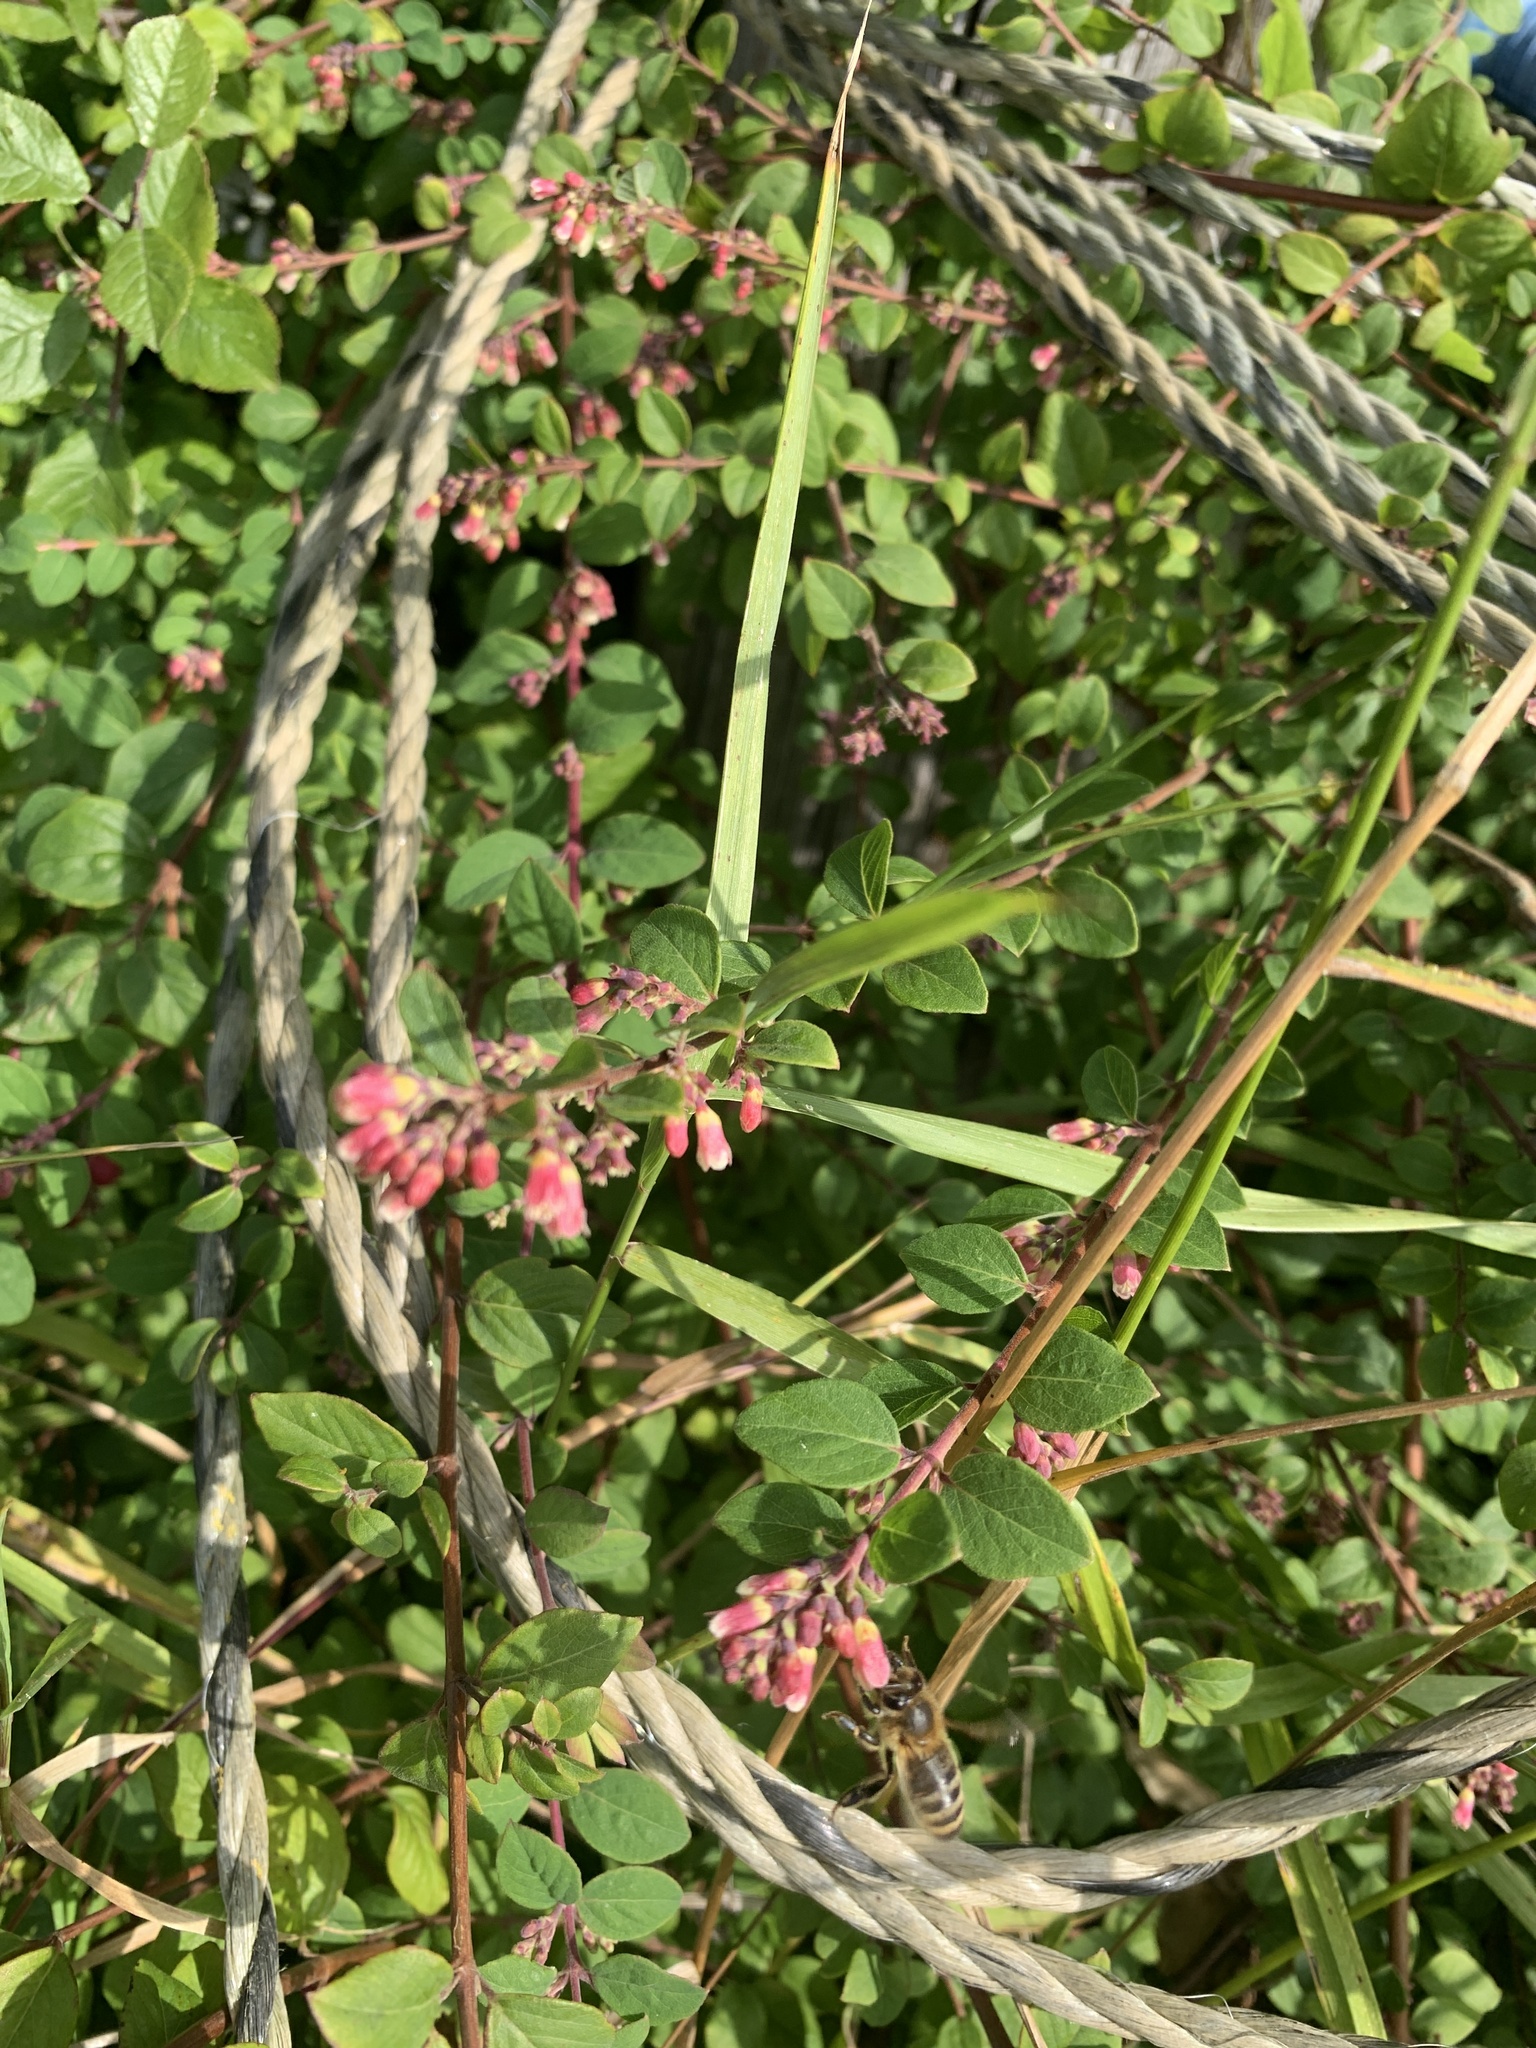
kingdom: Plantae
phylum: Tracheophyta
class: Magnoliopsida
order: Dipsacales
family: Caprifoliaceae
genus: Symphoricarpos
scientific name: Symphoricarpos albus
